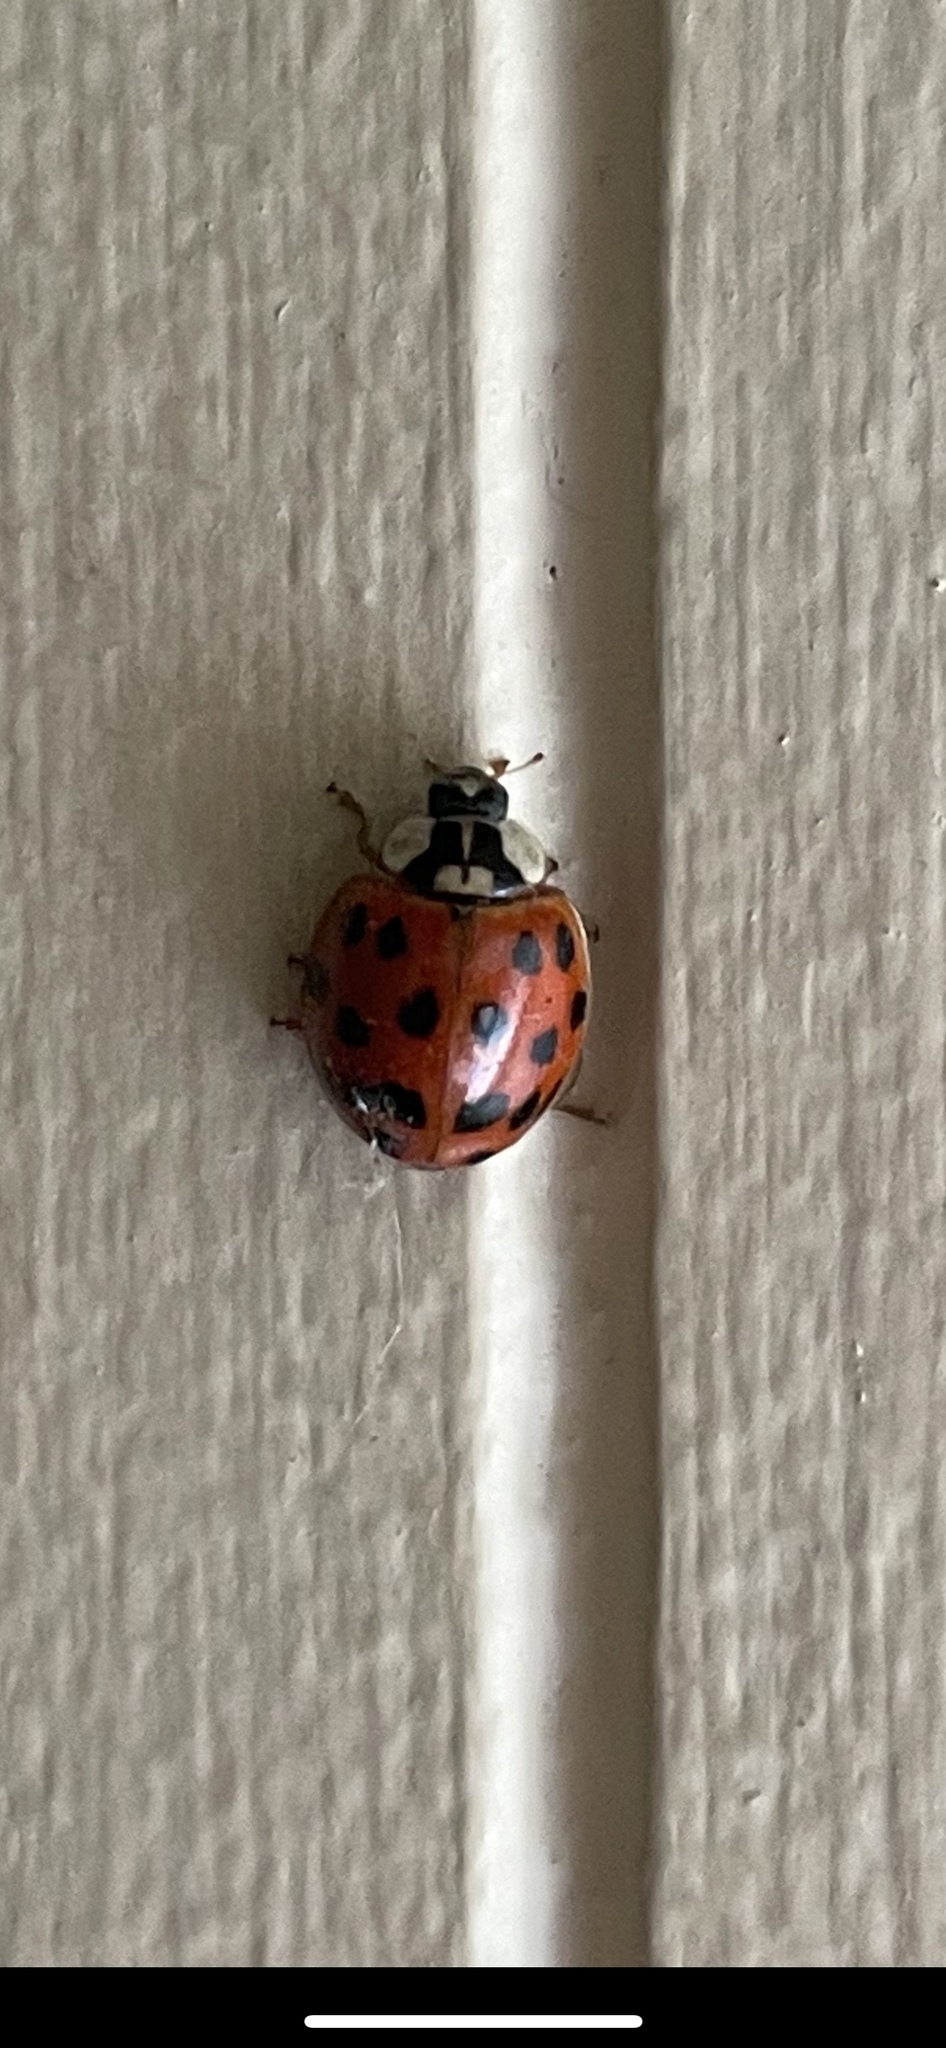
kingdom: Animalia
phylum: Arthropoda
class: Insecta
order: Coleoptera
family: Coccinellidae
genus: Harmonia
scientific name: Harmonia axyridis
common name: Harlequin ladybird
